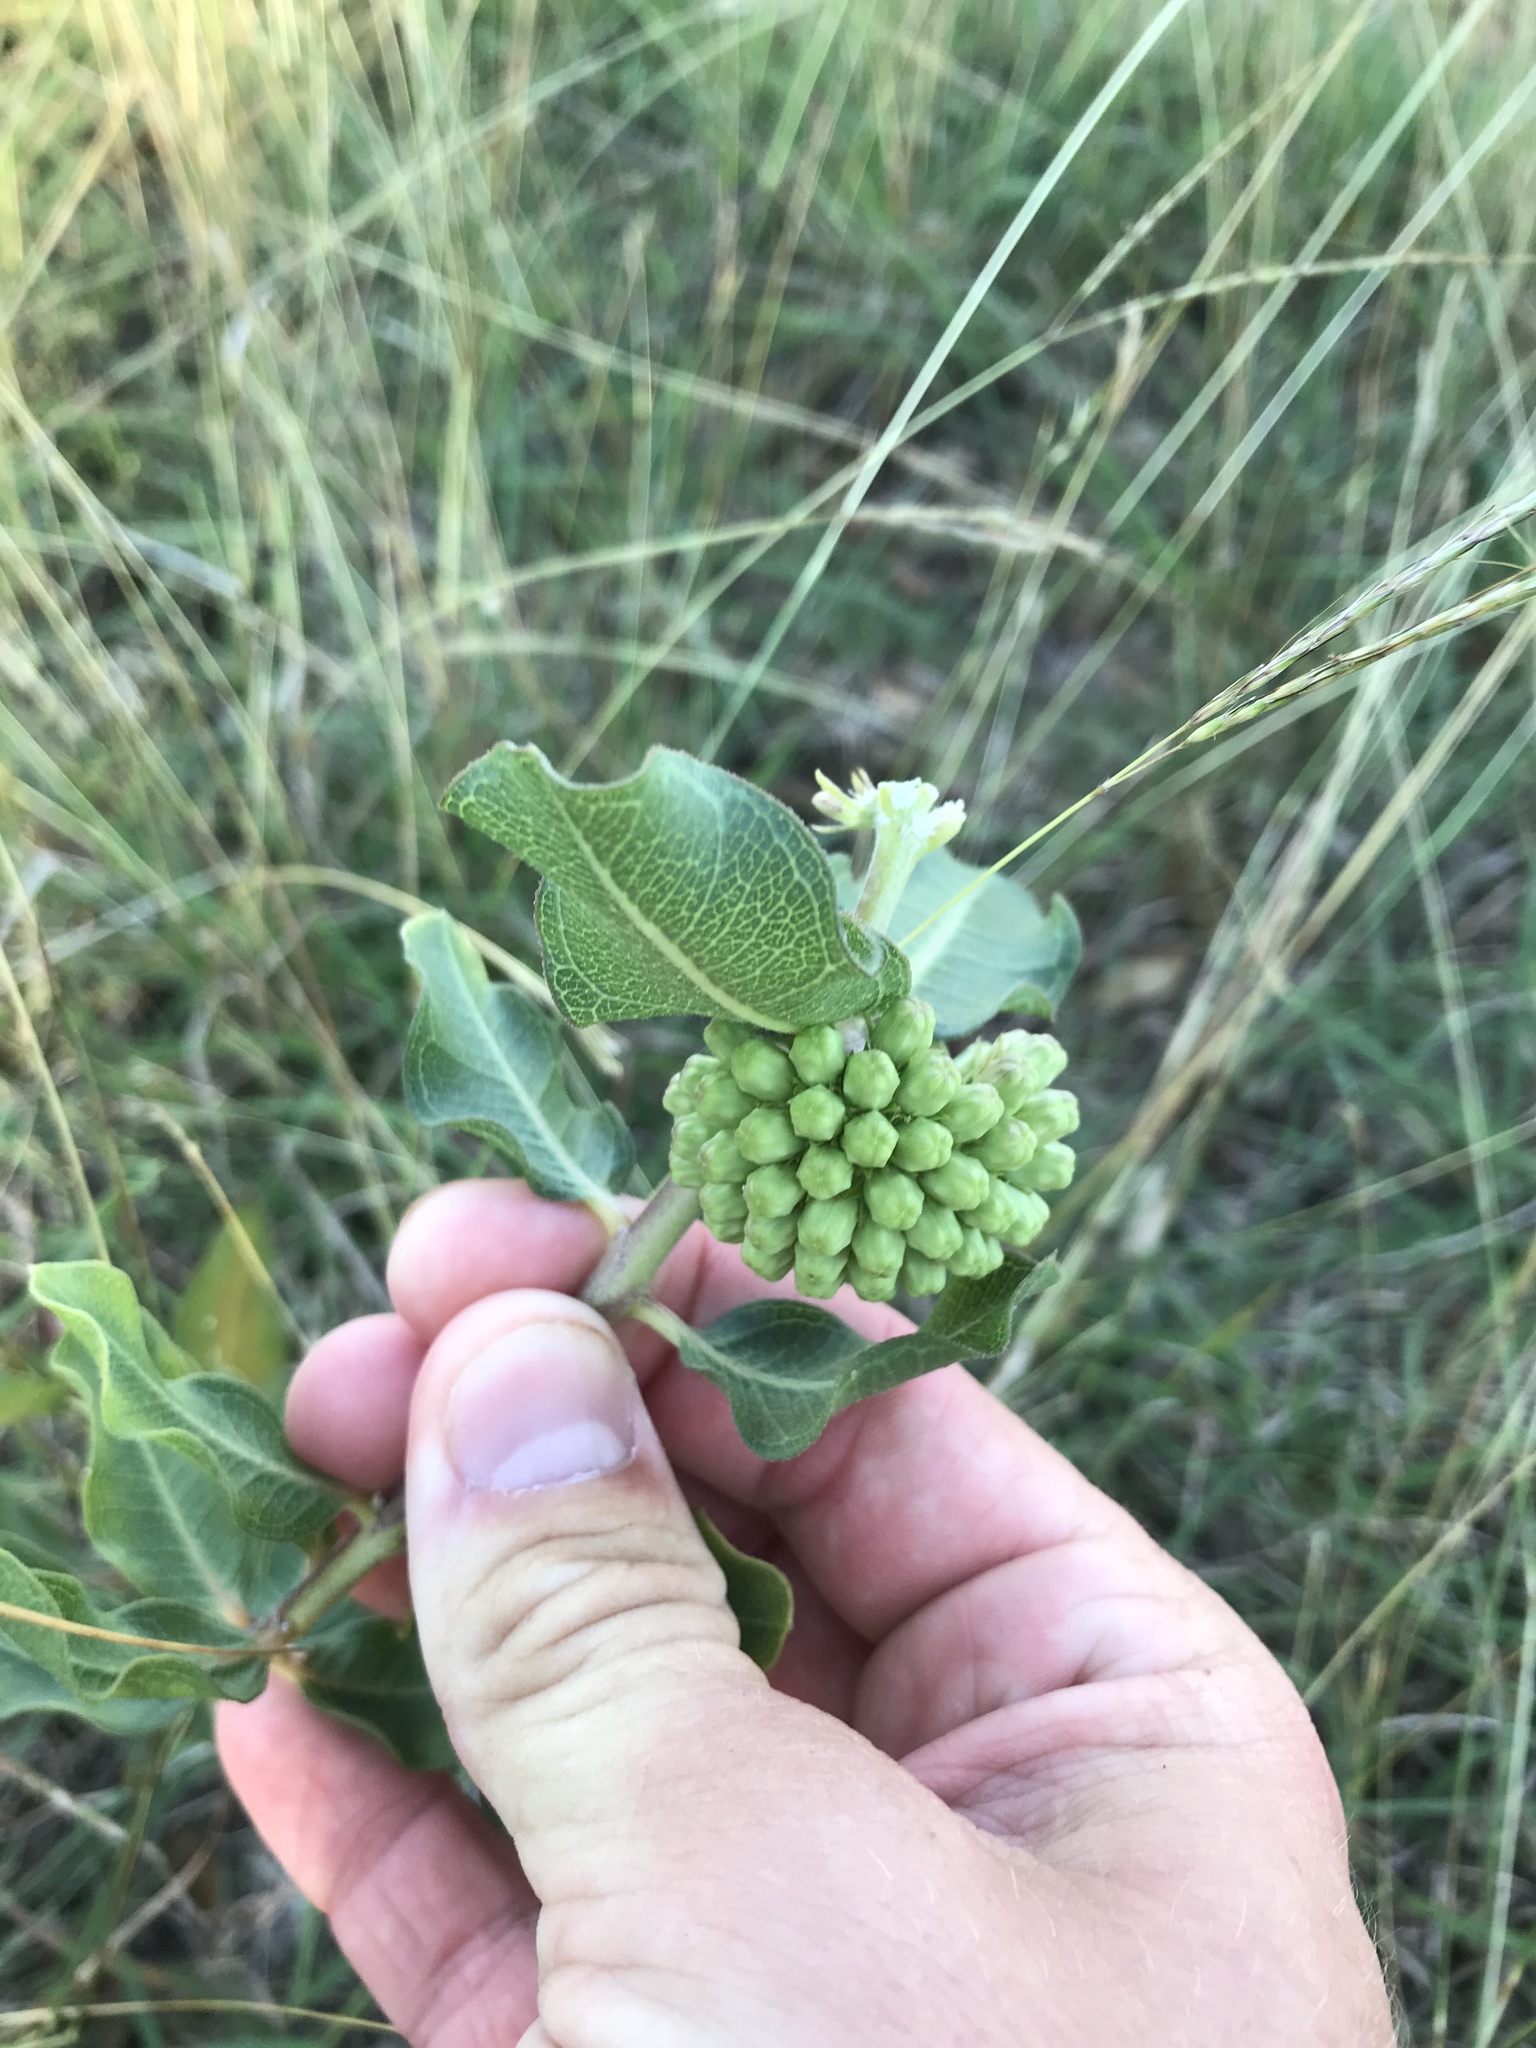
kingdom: Plantae
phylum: Tracheophyta
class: Magnoliopsida
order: Gentianales
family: Apocynaceae
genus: Asclepias
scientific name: Asclepias viridiflora
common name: Green comet milkweed
